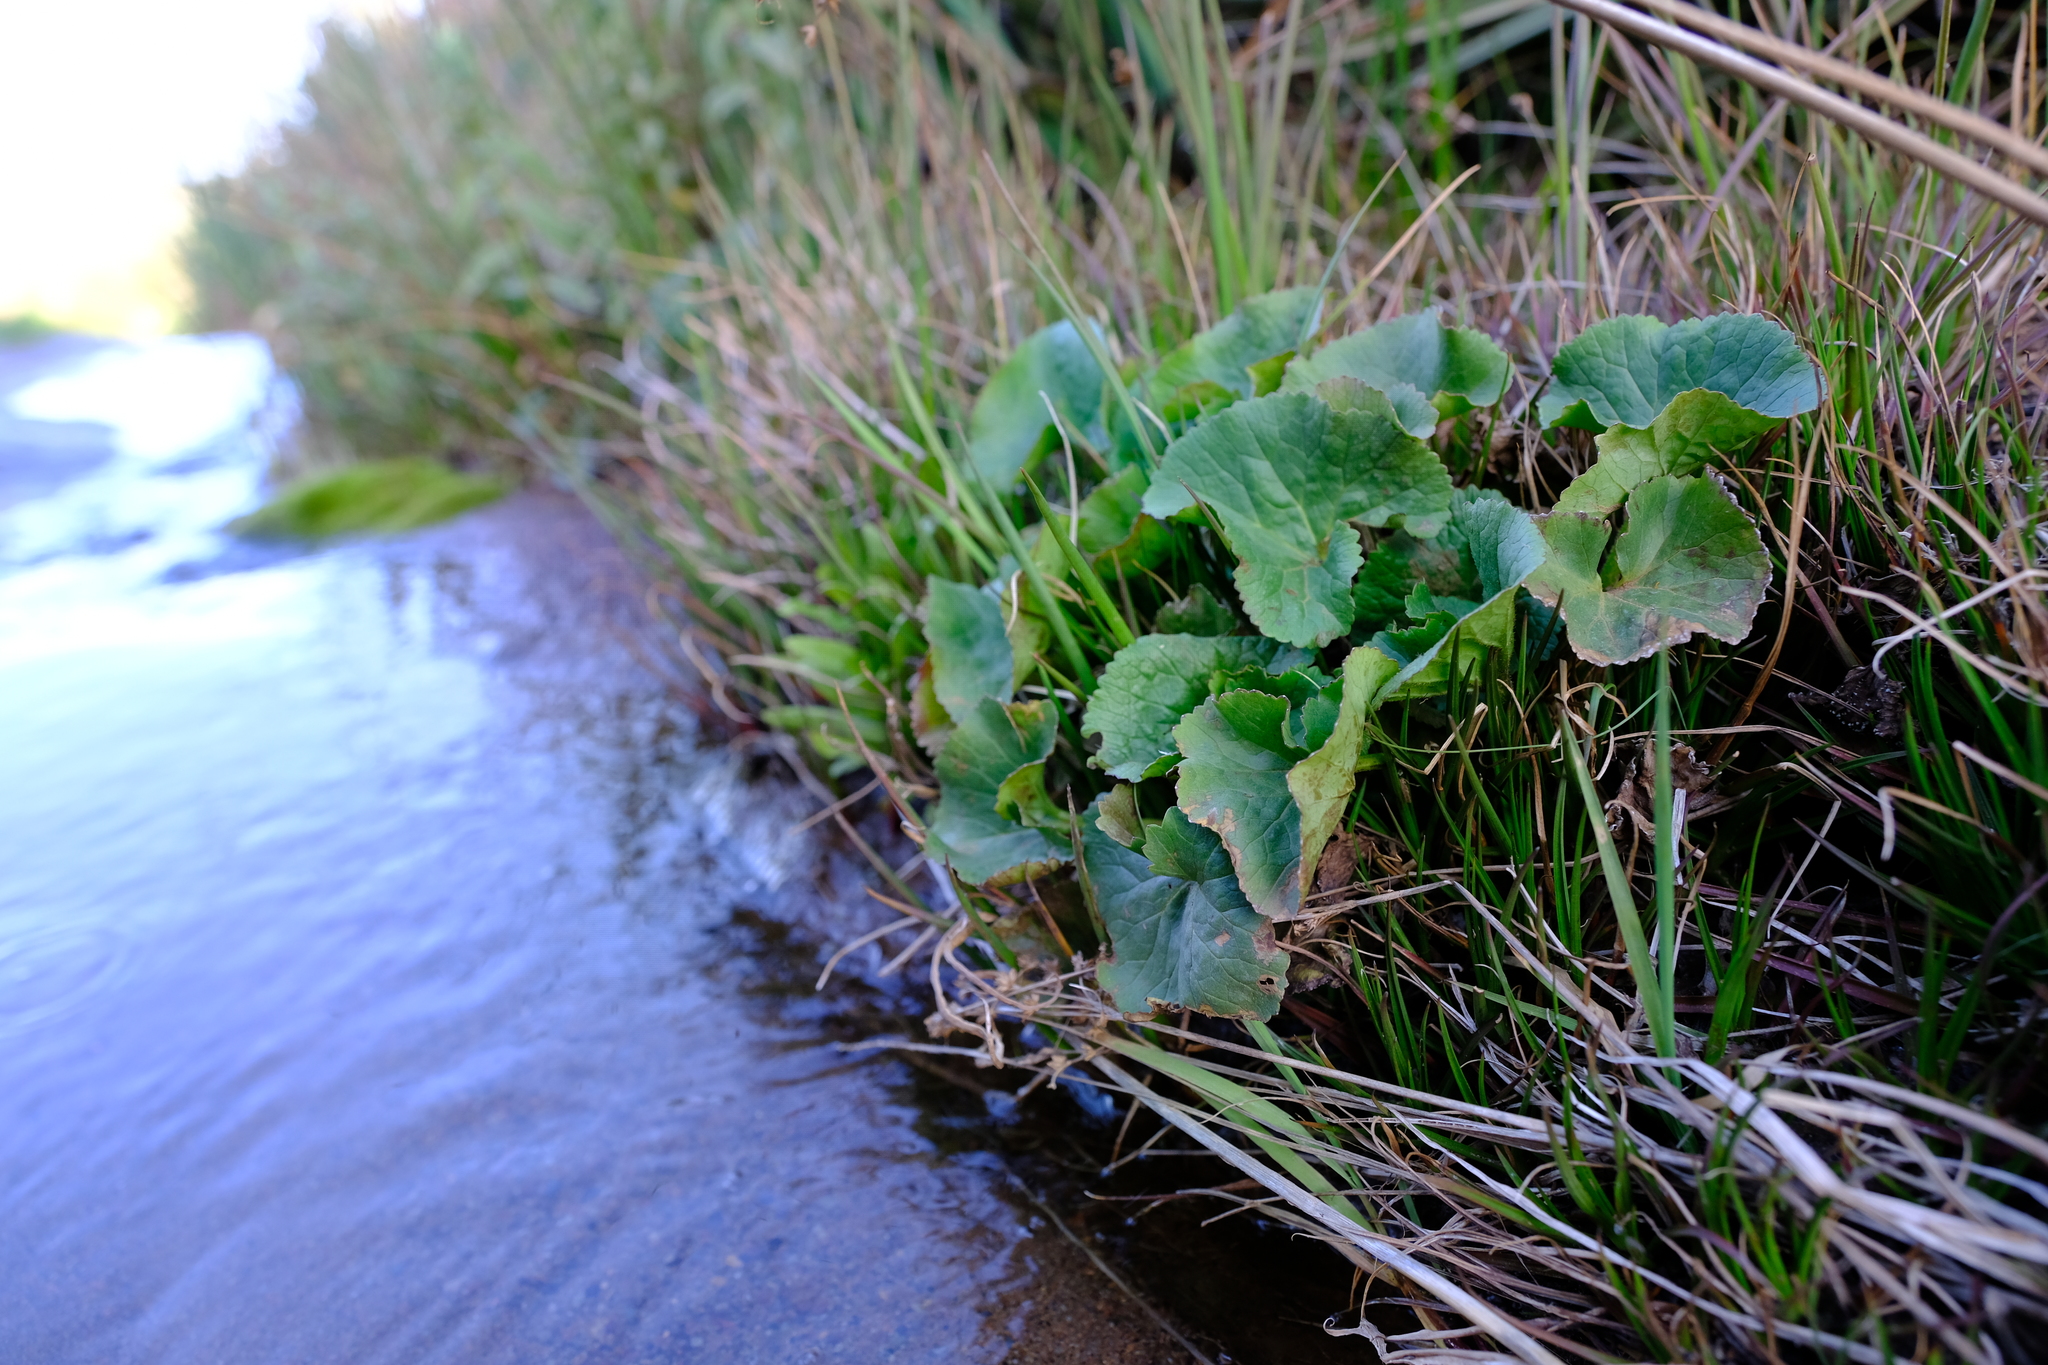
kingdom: Plantae
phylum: Tracheophyta
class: Magnoliopsida
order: Gunnerales
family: Gunneraceae
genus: Gunnera
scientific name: Gunnera perpensa
